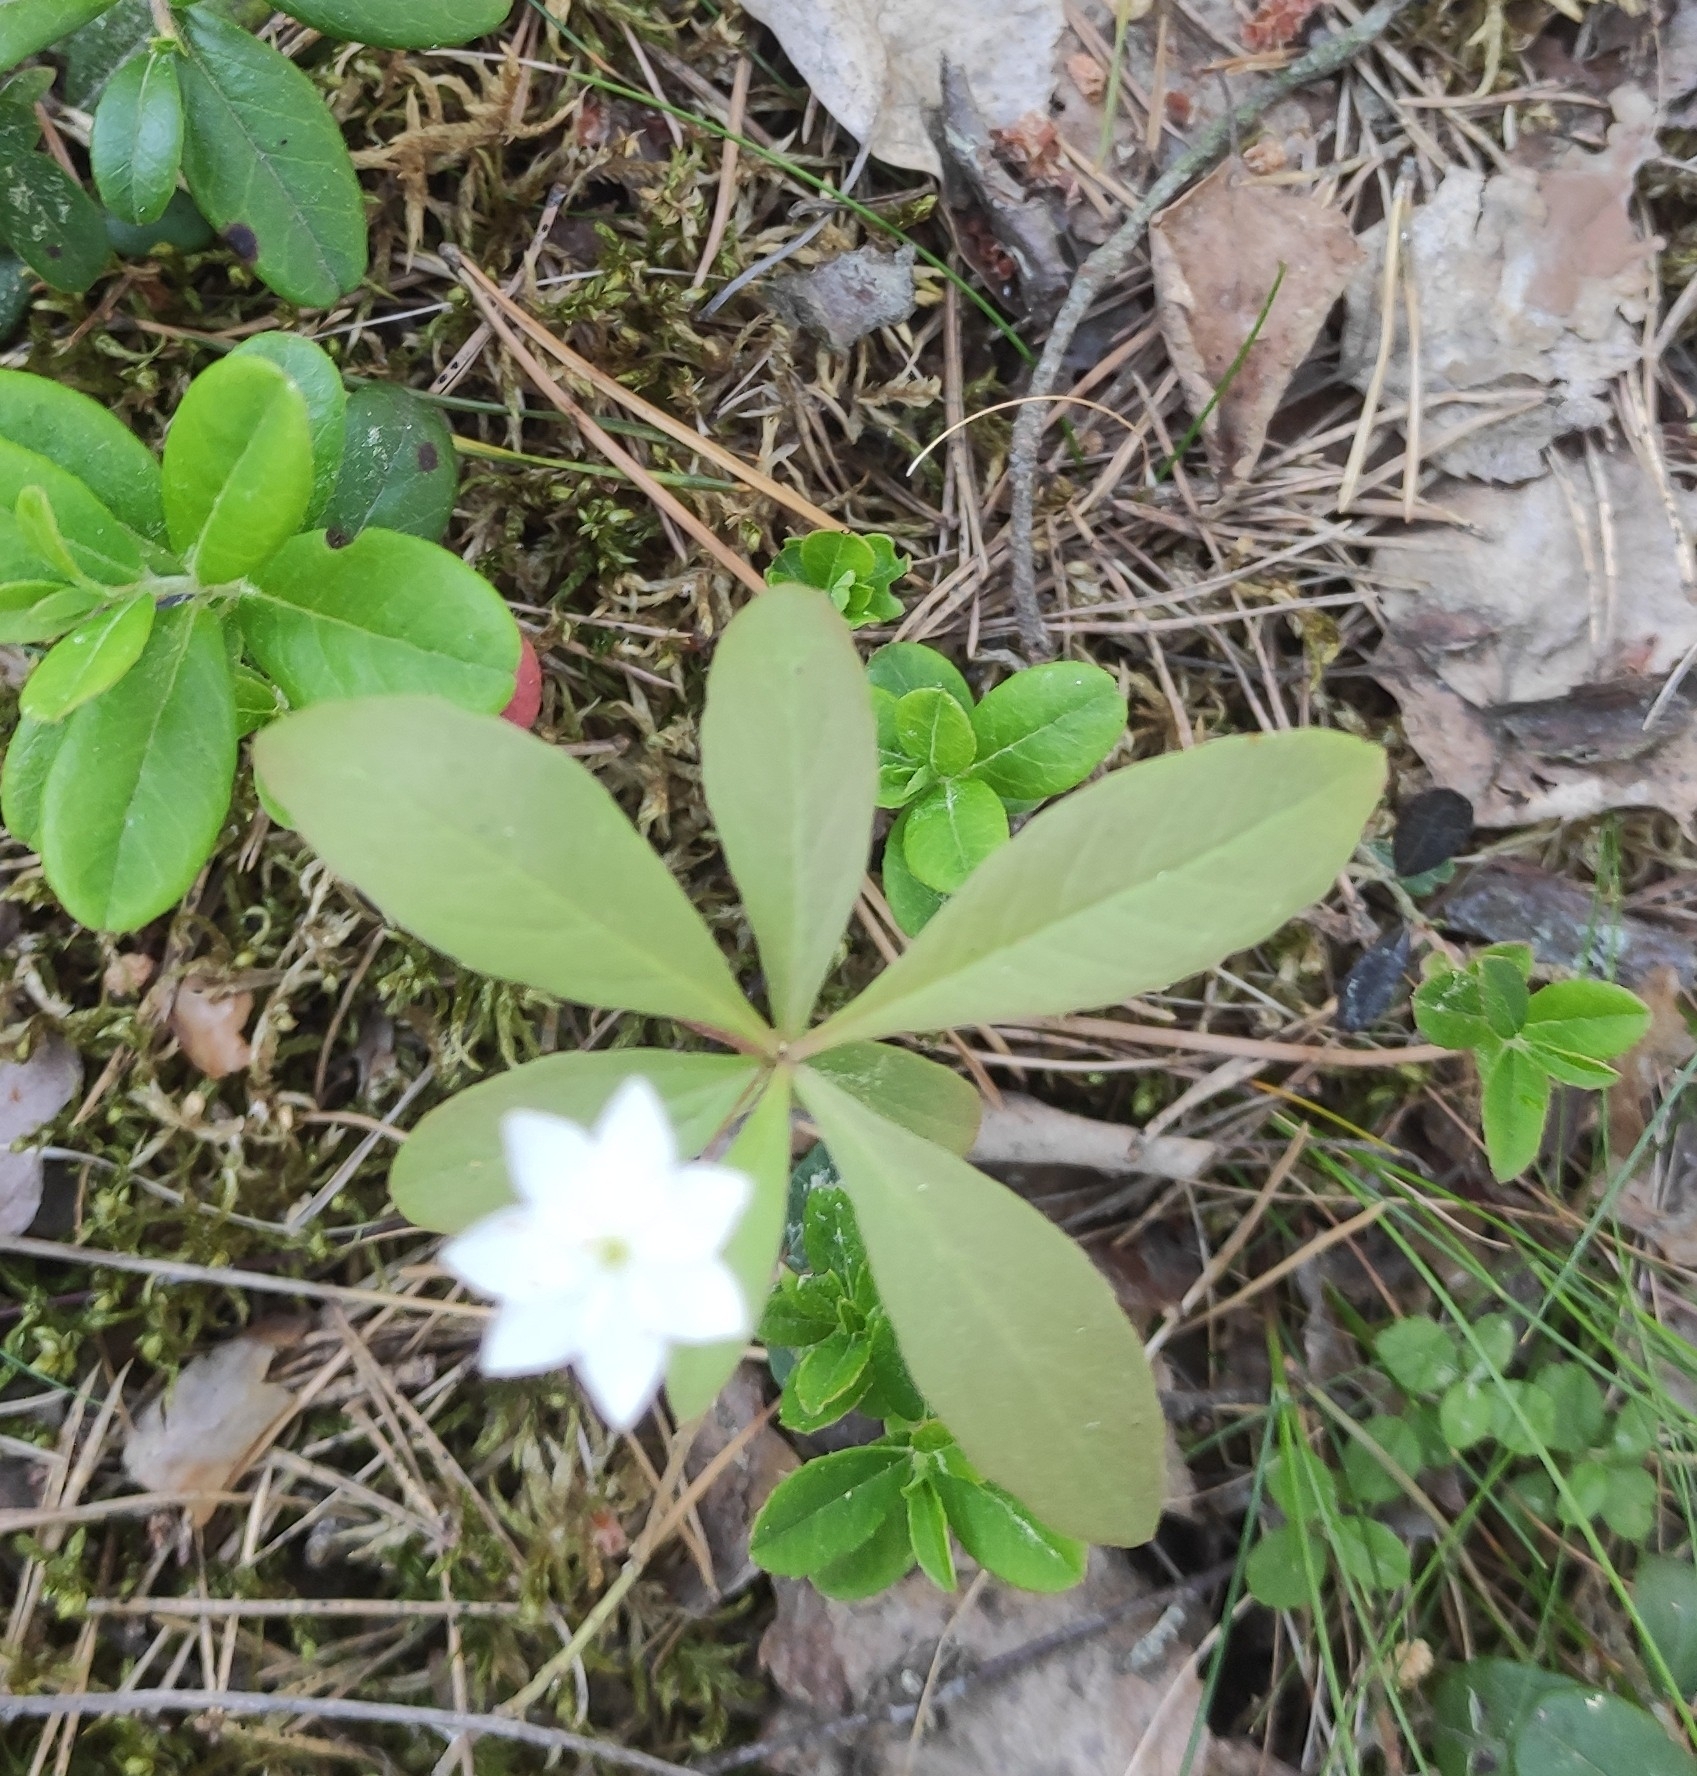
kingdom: Plantae
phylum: Tracheophyta
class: Magnoliopsida
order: Ericales
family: Primulaceae
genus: Lysimachia
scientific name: Lysimachia europaea
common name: Arctic starflower
